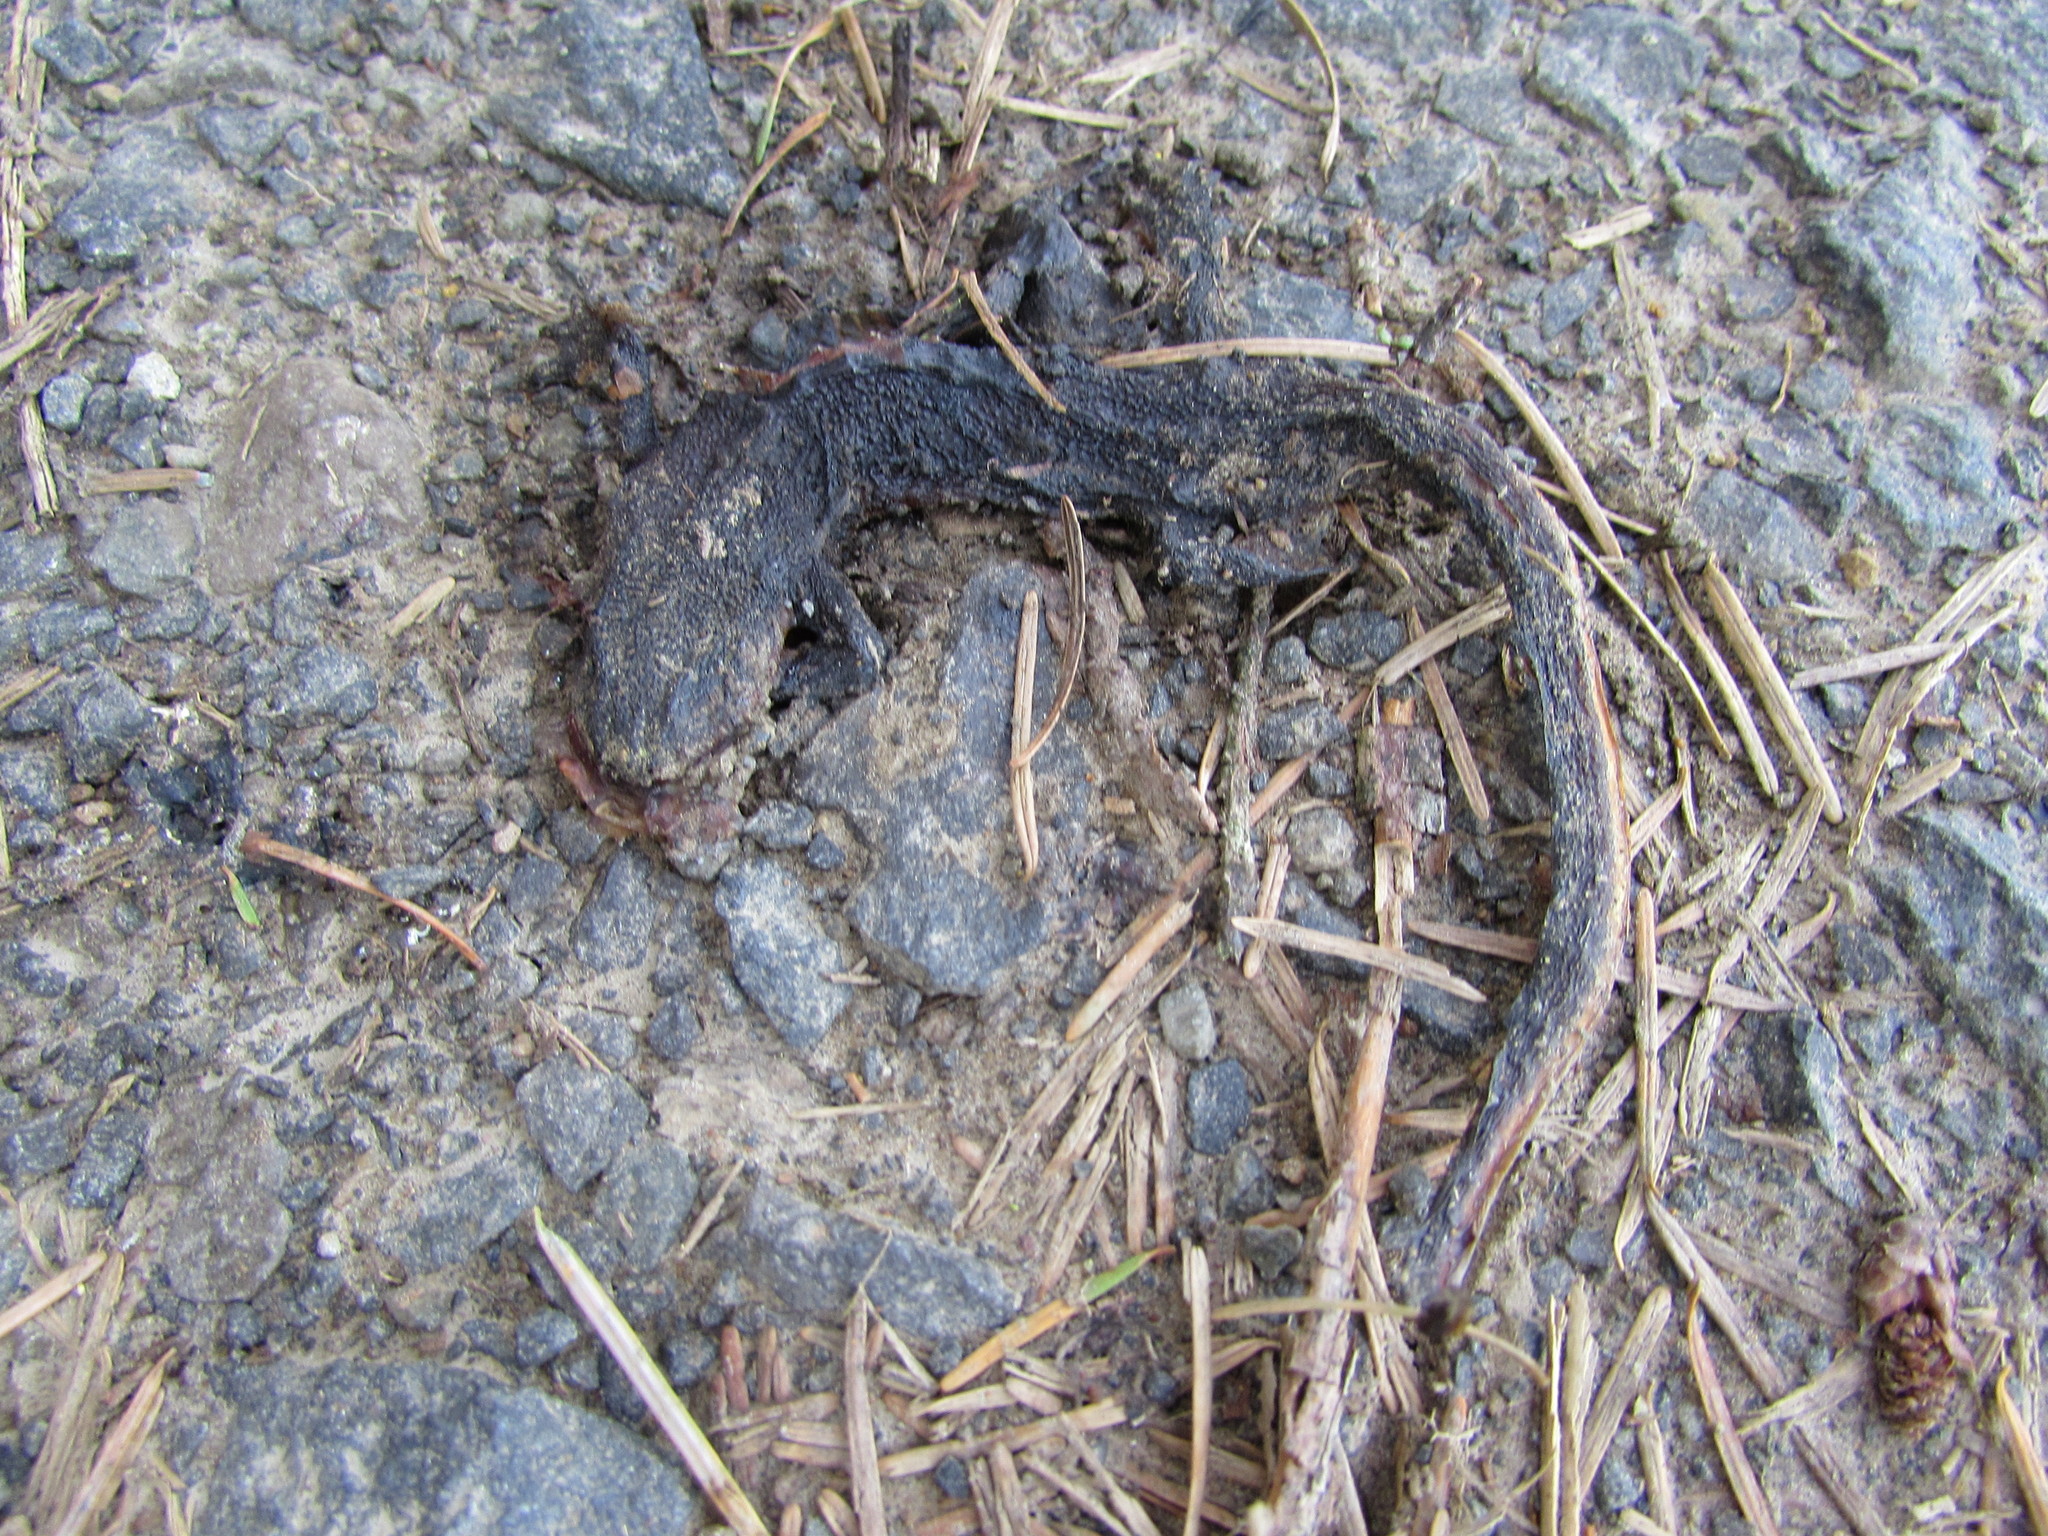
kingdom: Animalia
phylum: Chordata
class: Amphibia
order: Caudata
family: Salamandridae
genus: Taricha
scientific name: Taricha granulosa
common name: Roughskin newt
